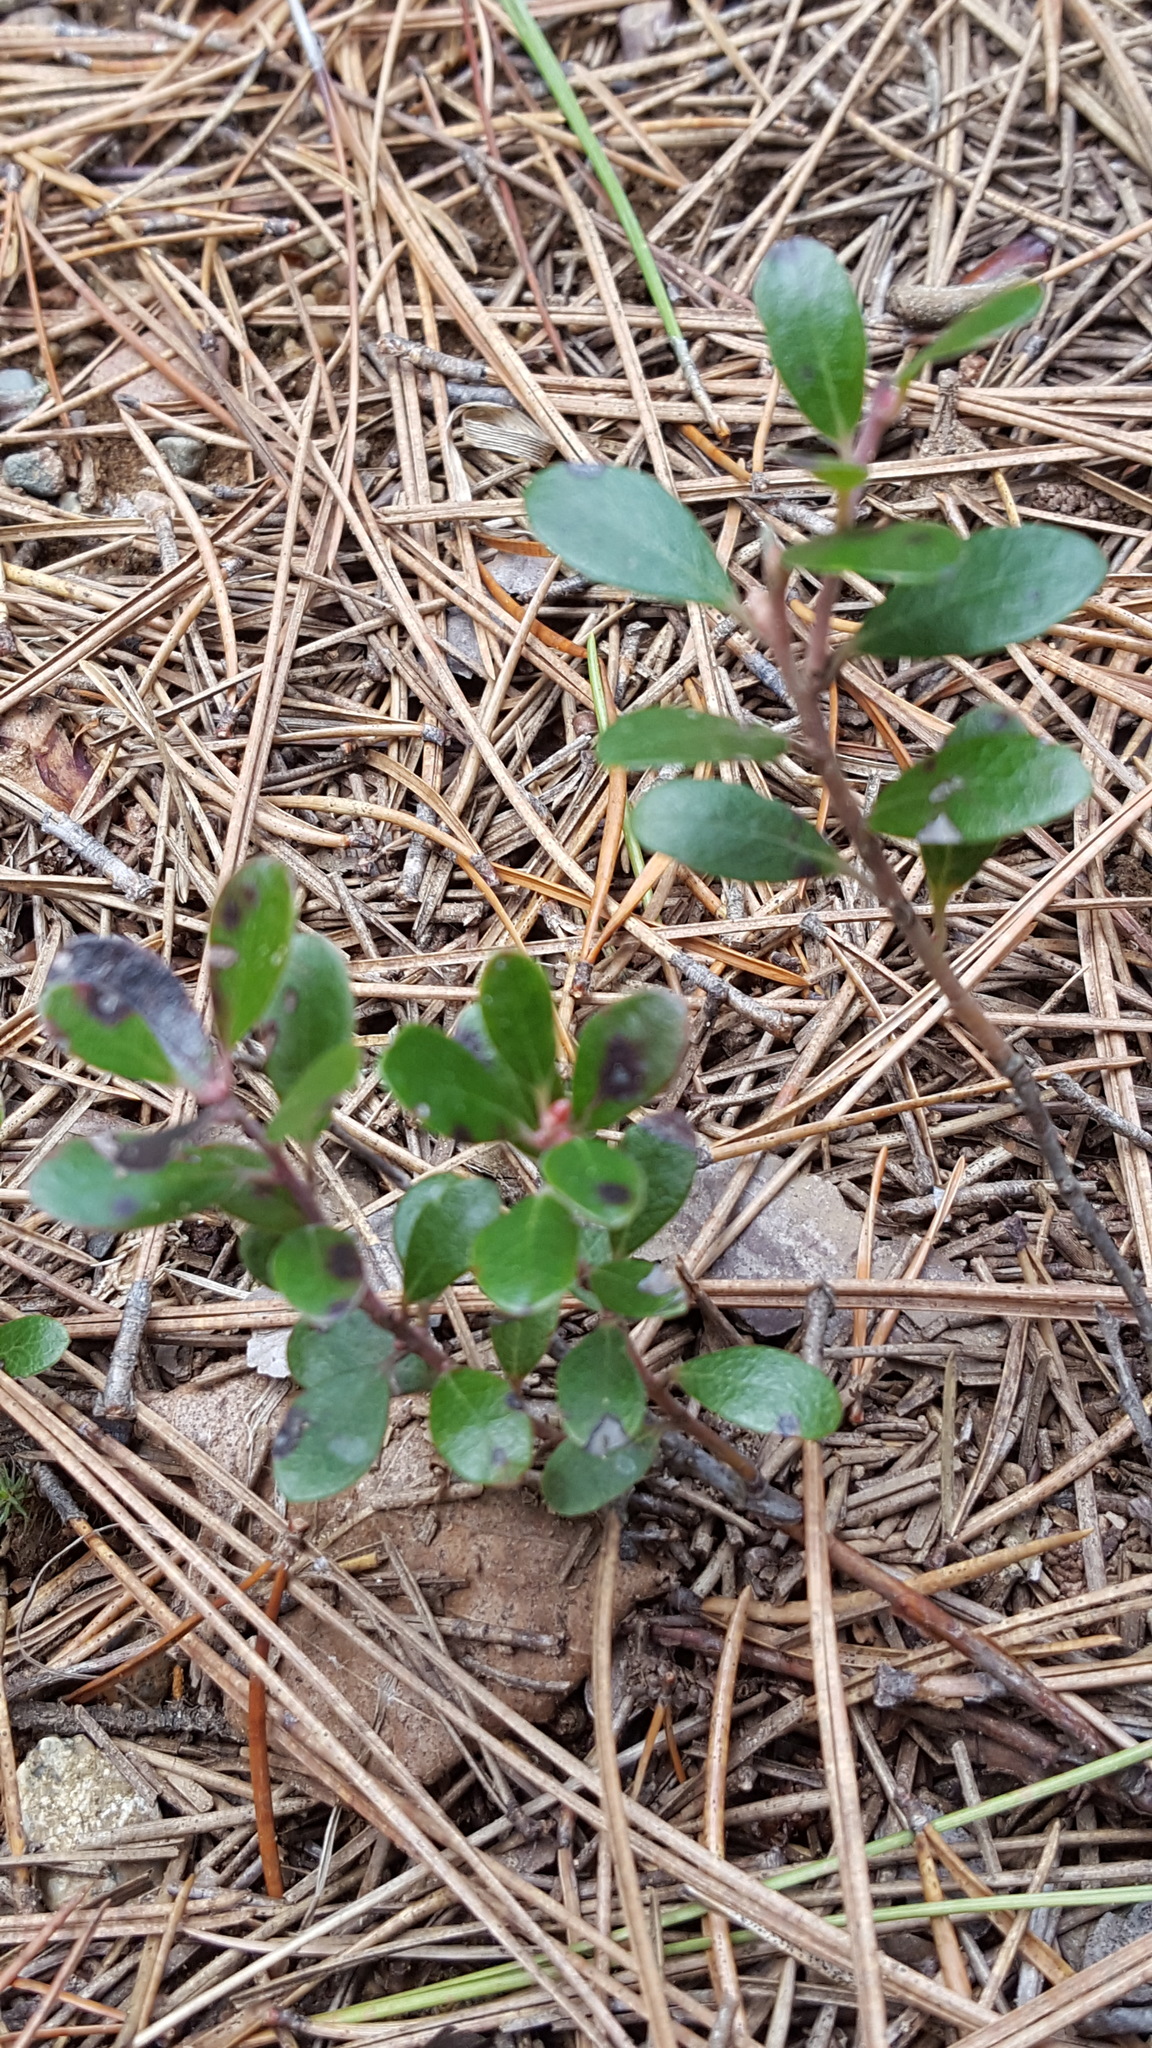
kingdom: Plantae
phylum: Tracheophyta
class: Magnoliopsida
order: Ericales
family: Ericaceae
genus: Arctostaphylos
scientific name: Arctostaphylos uva-ursi
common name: Bearberry
